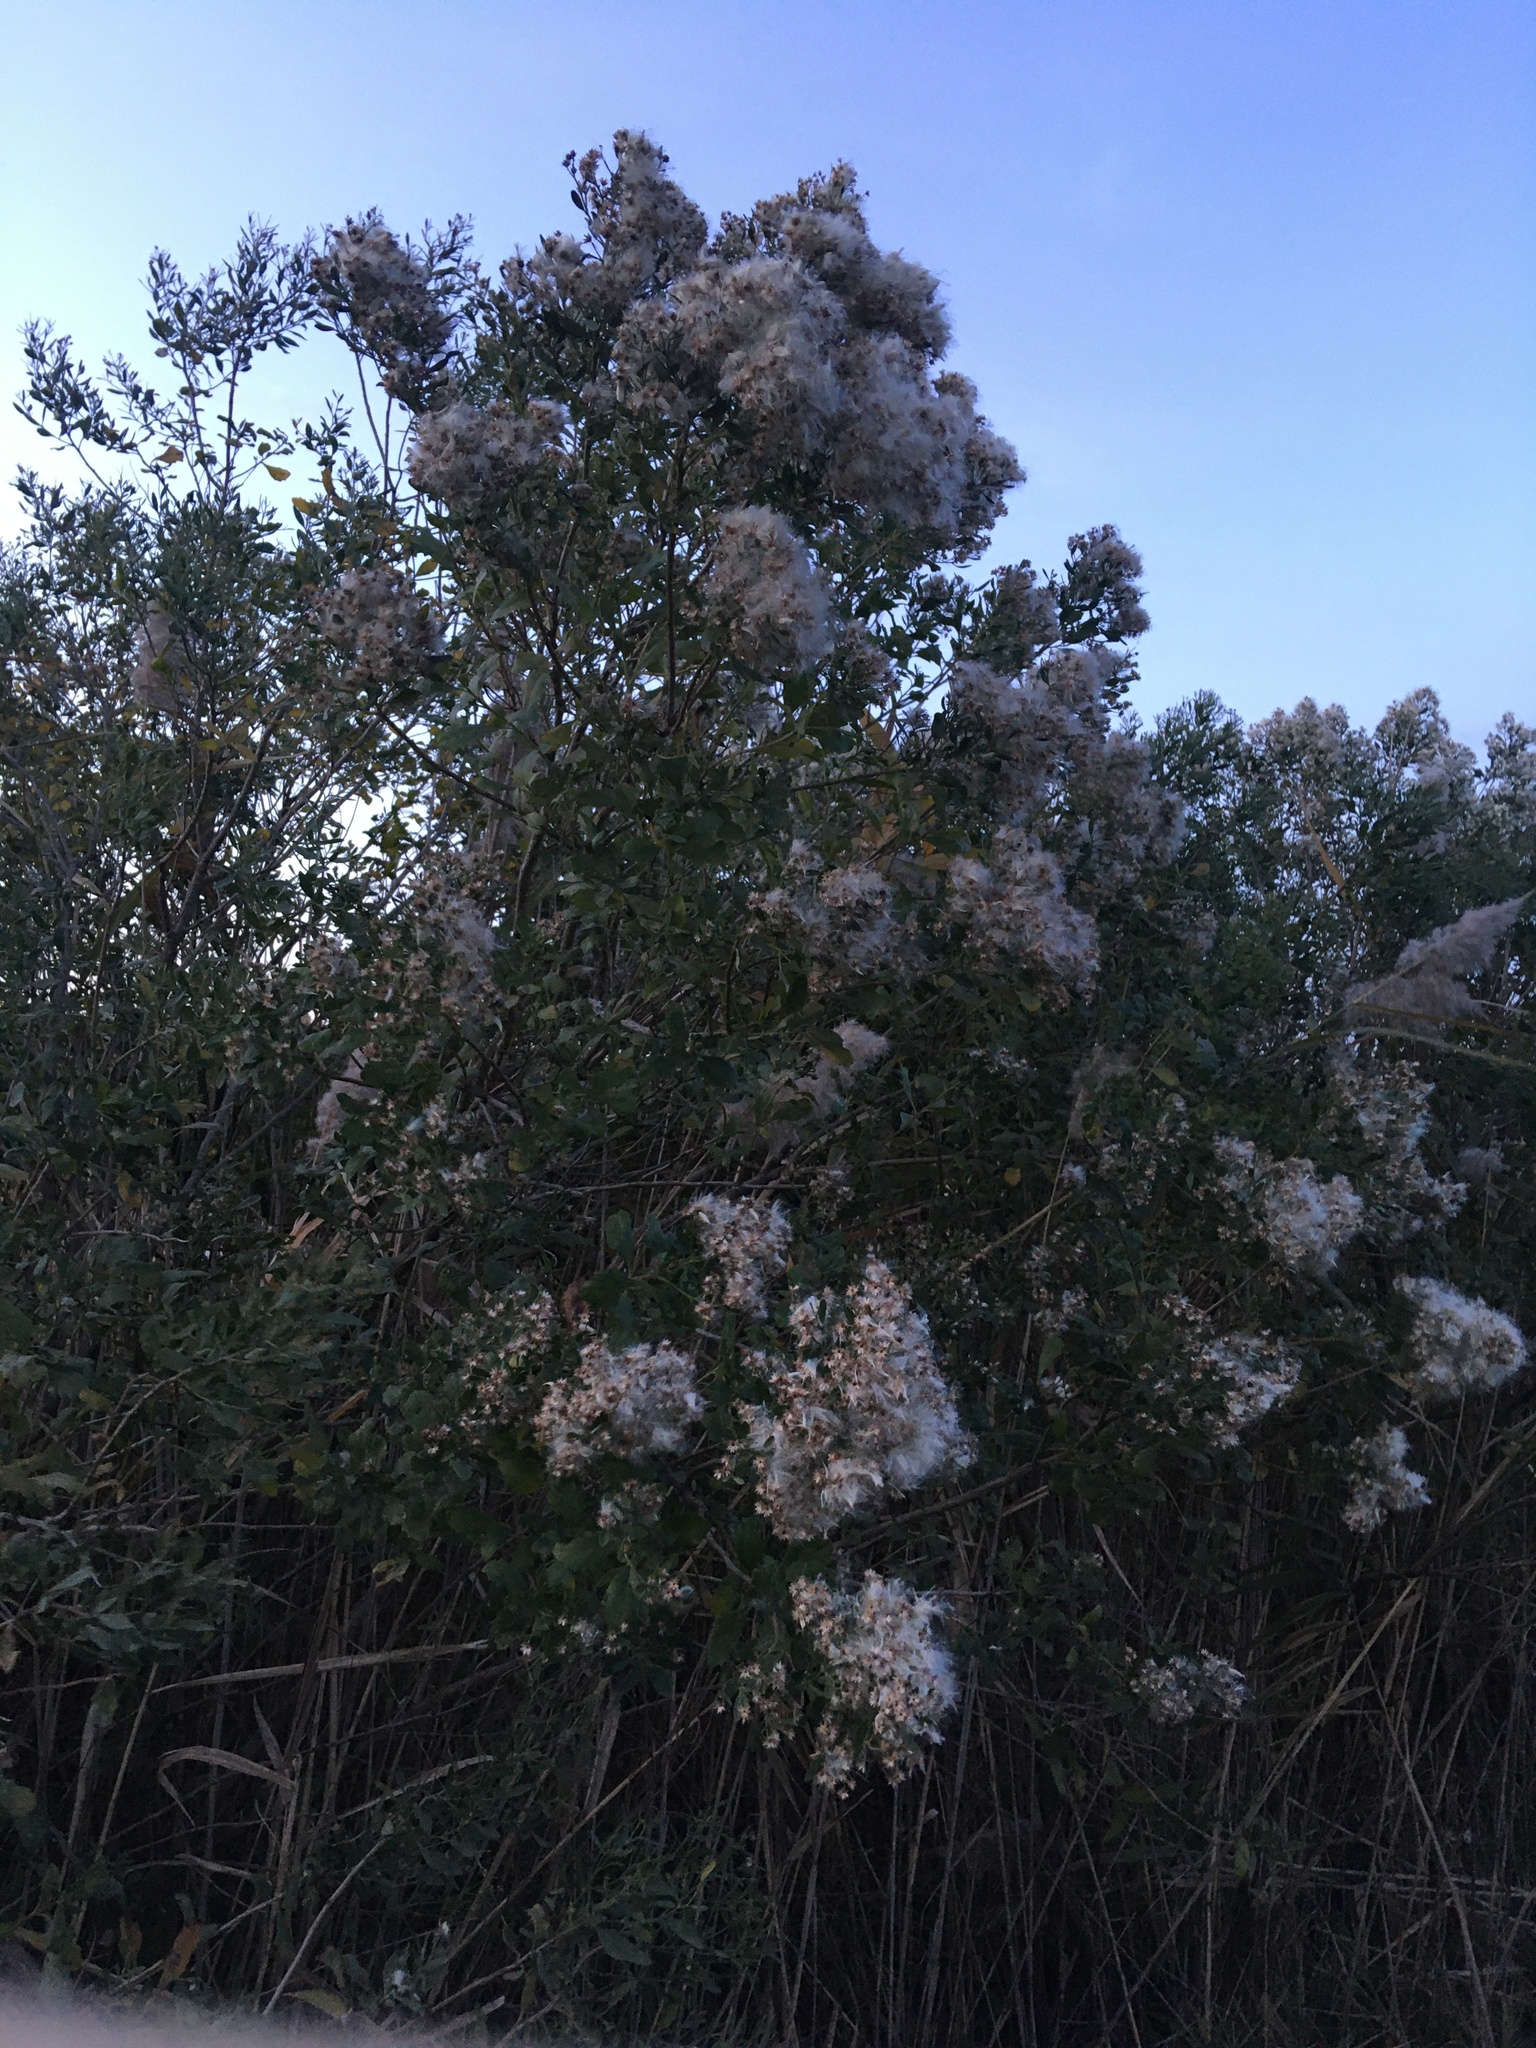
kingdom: Plantae
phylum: Tracheophyta
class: Magnoliopsida
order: Asterales
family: Asteraceae
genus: Baccharis
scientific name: Baccharis halimifolia
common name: Eastern baccharis
